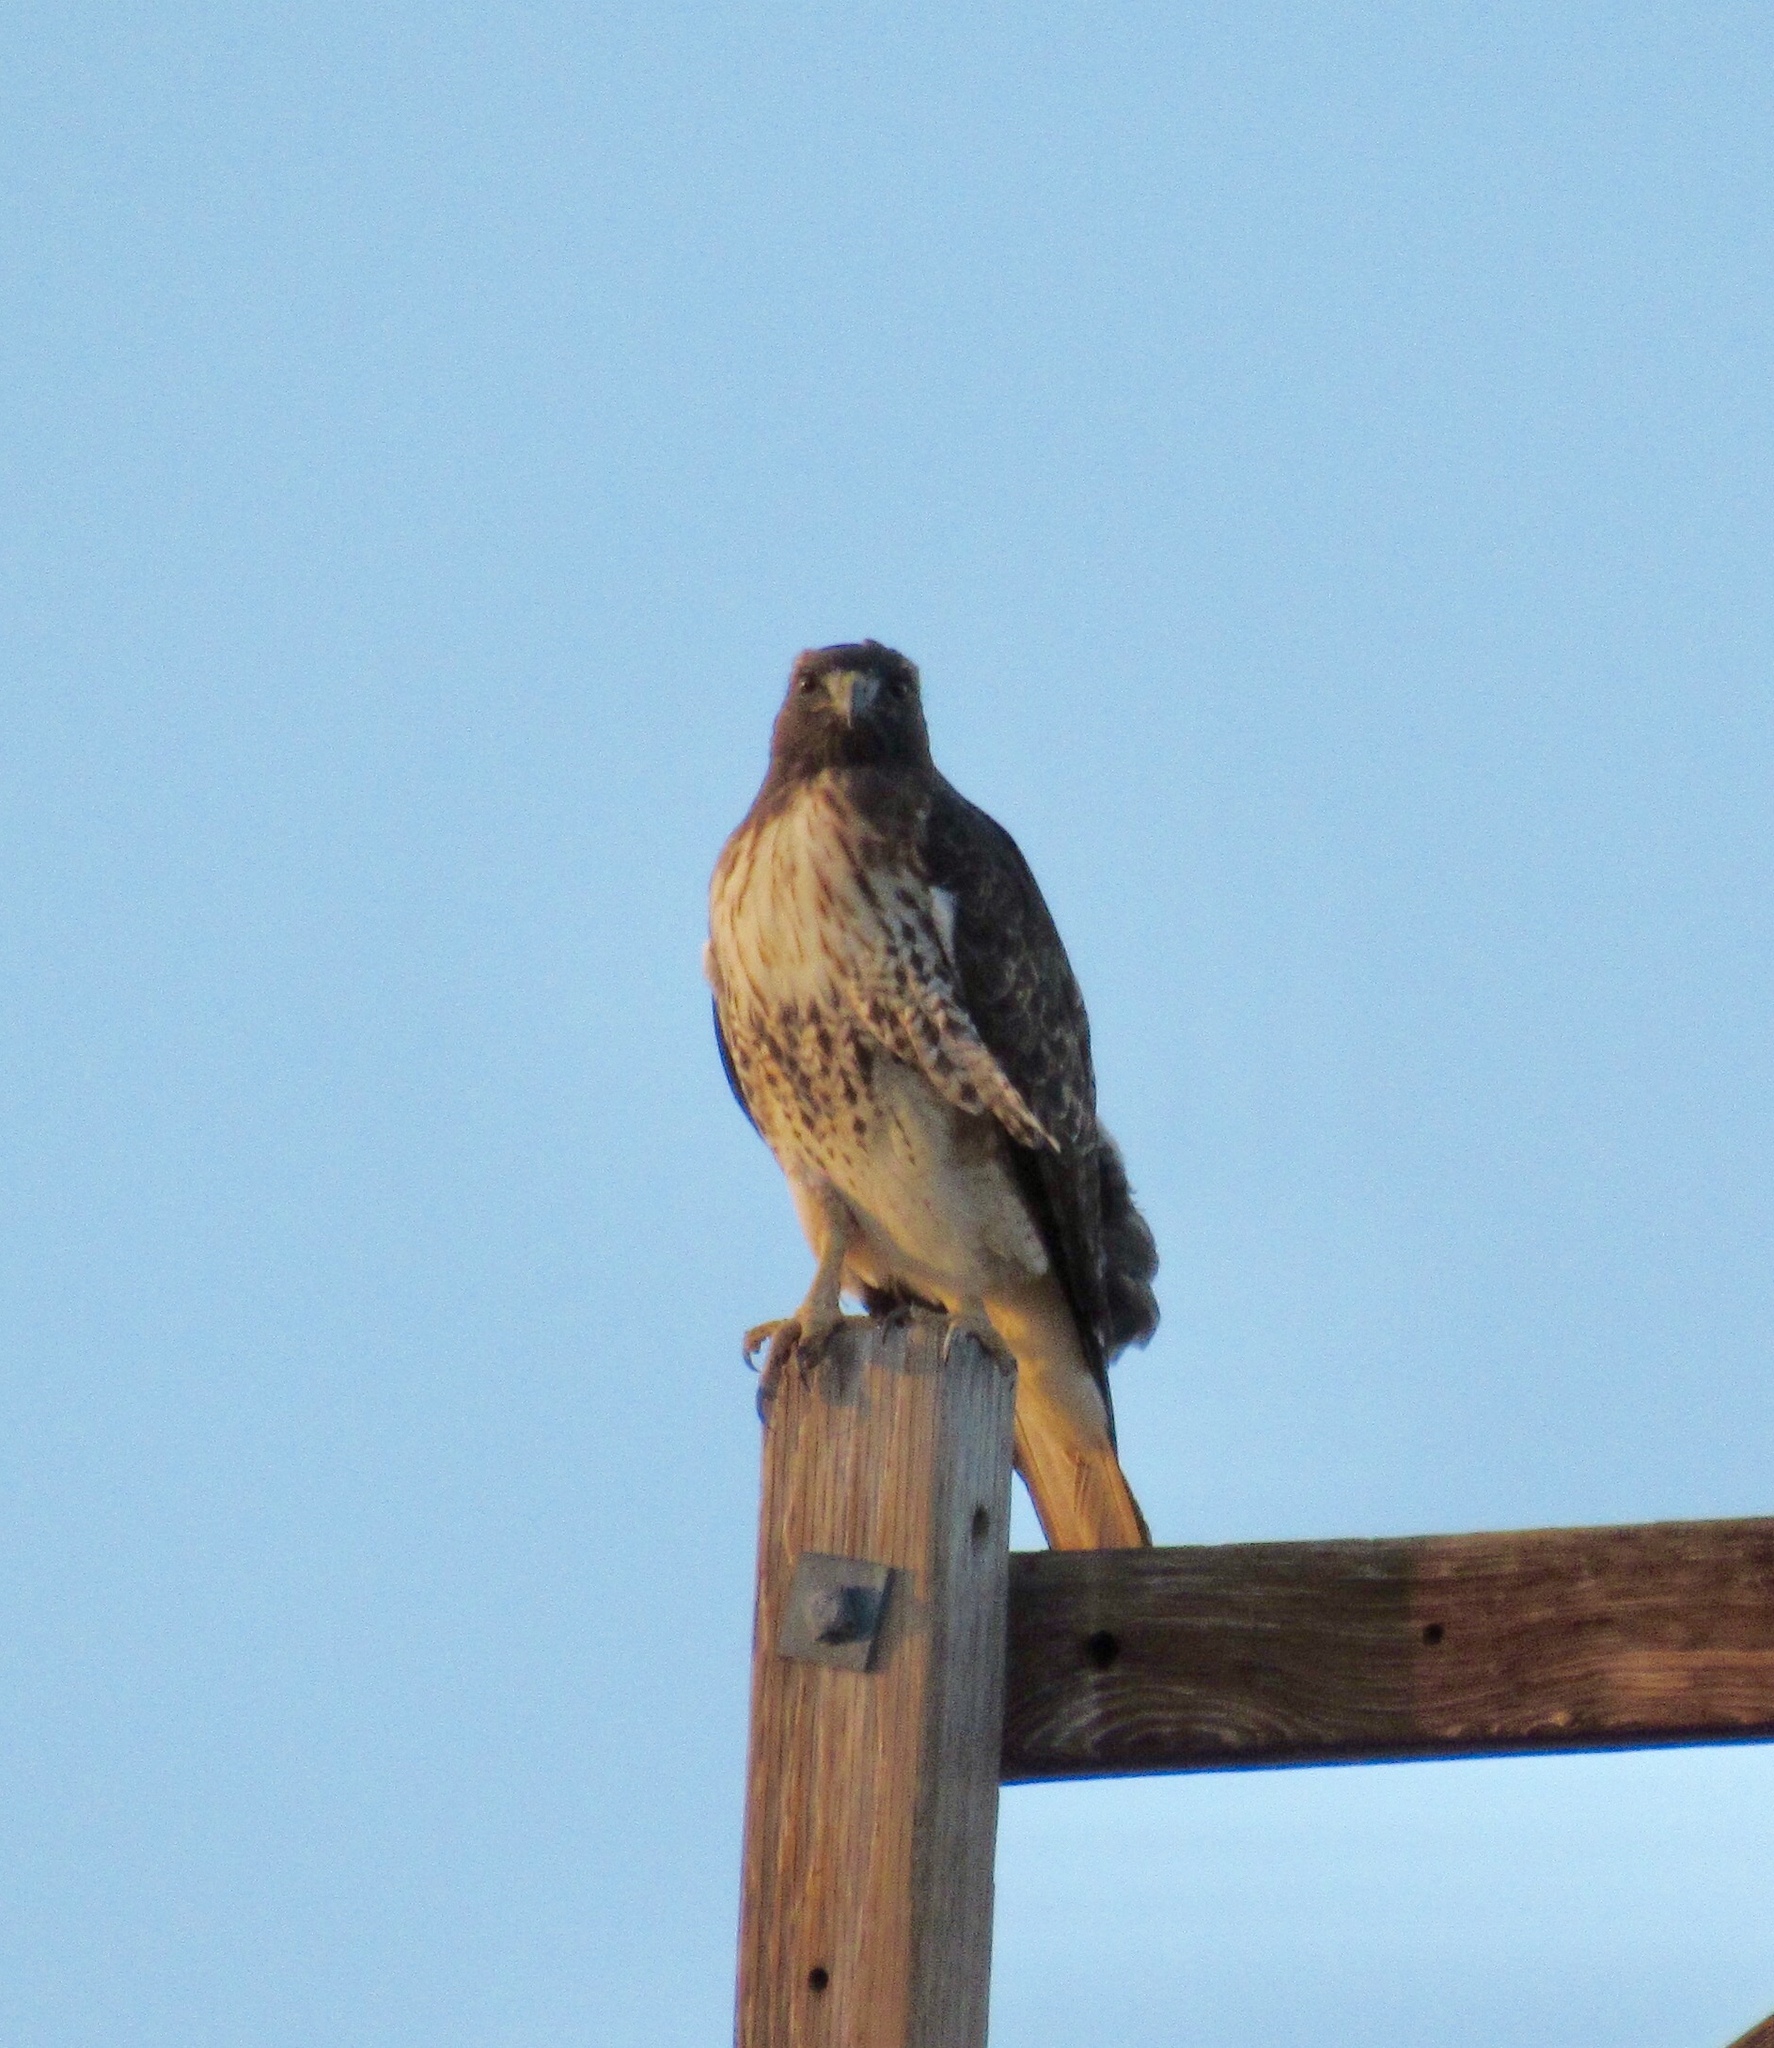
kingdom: Animalia
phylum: Chordata
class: Aves
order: Accipitriformes
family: Accipitridae
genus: Buteo
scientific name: Buteo jamaicensis
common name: Red-tailed hawk
